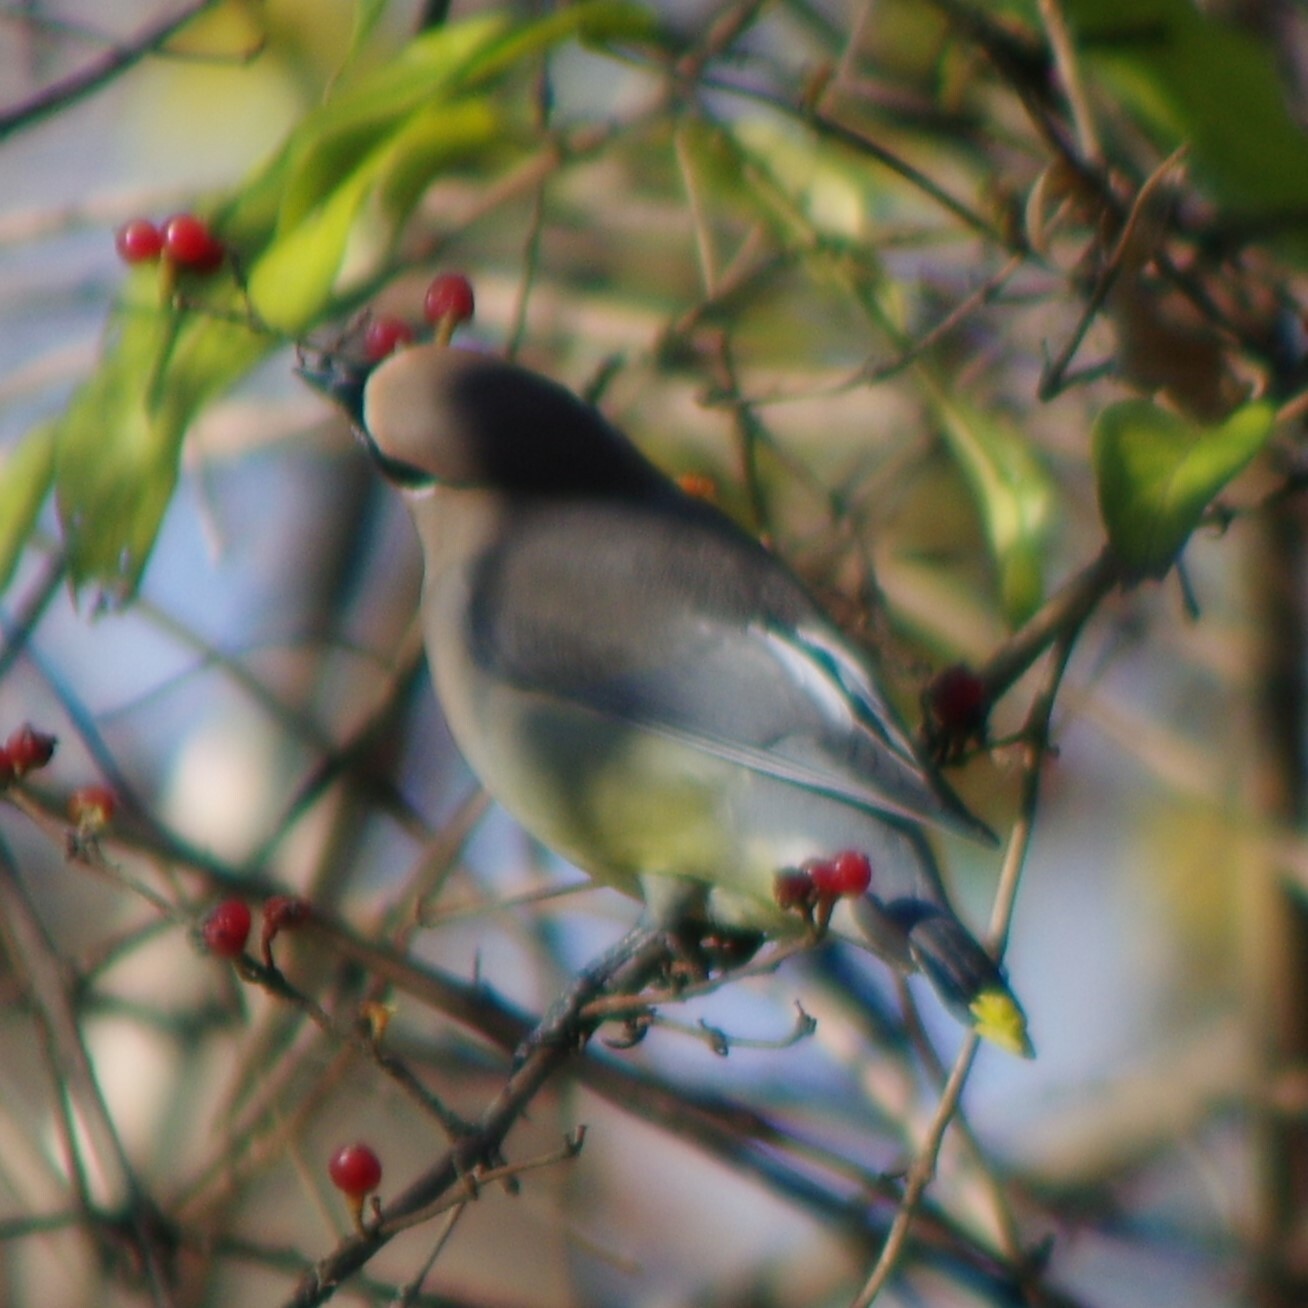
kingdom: Animalia
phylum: Chordata
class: Aves
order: Passeriformes
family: Bombycillidae
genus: Bombycilla
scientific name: Bombycilla cedrorum
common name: Cedar waxwing
